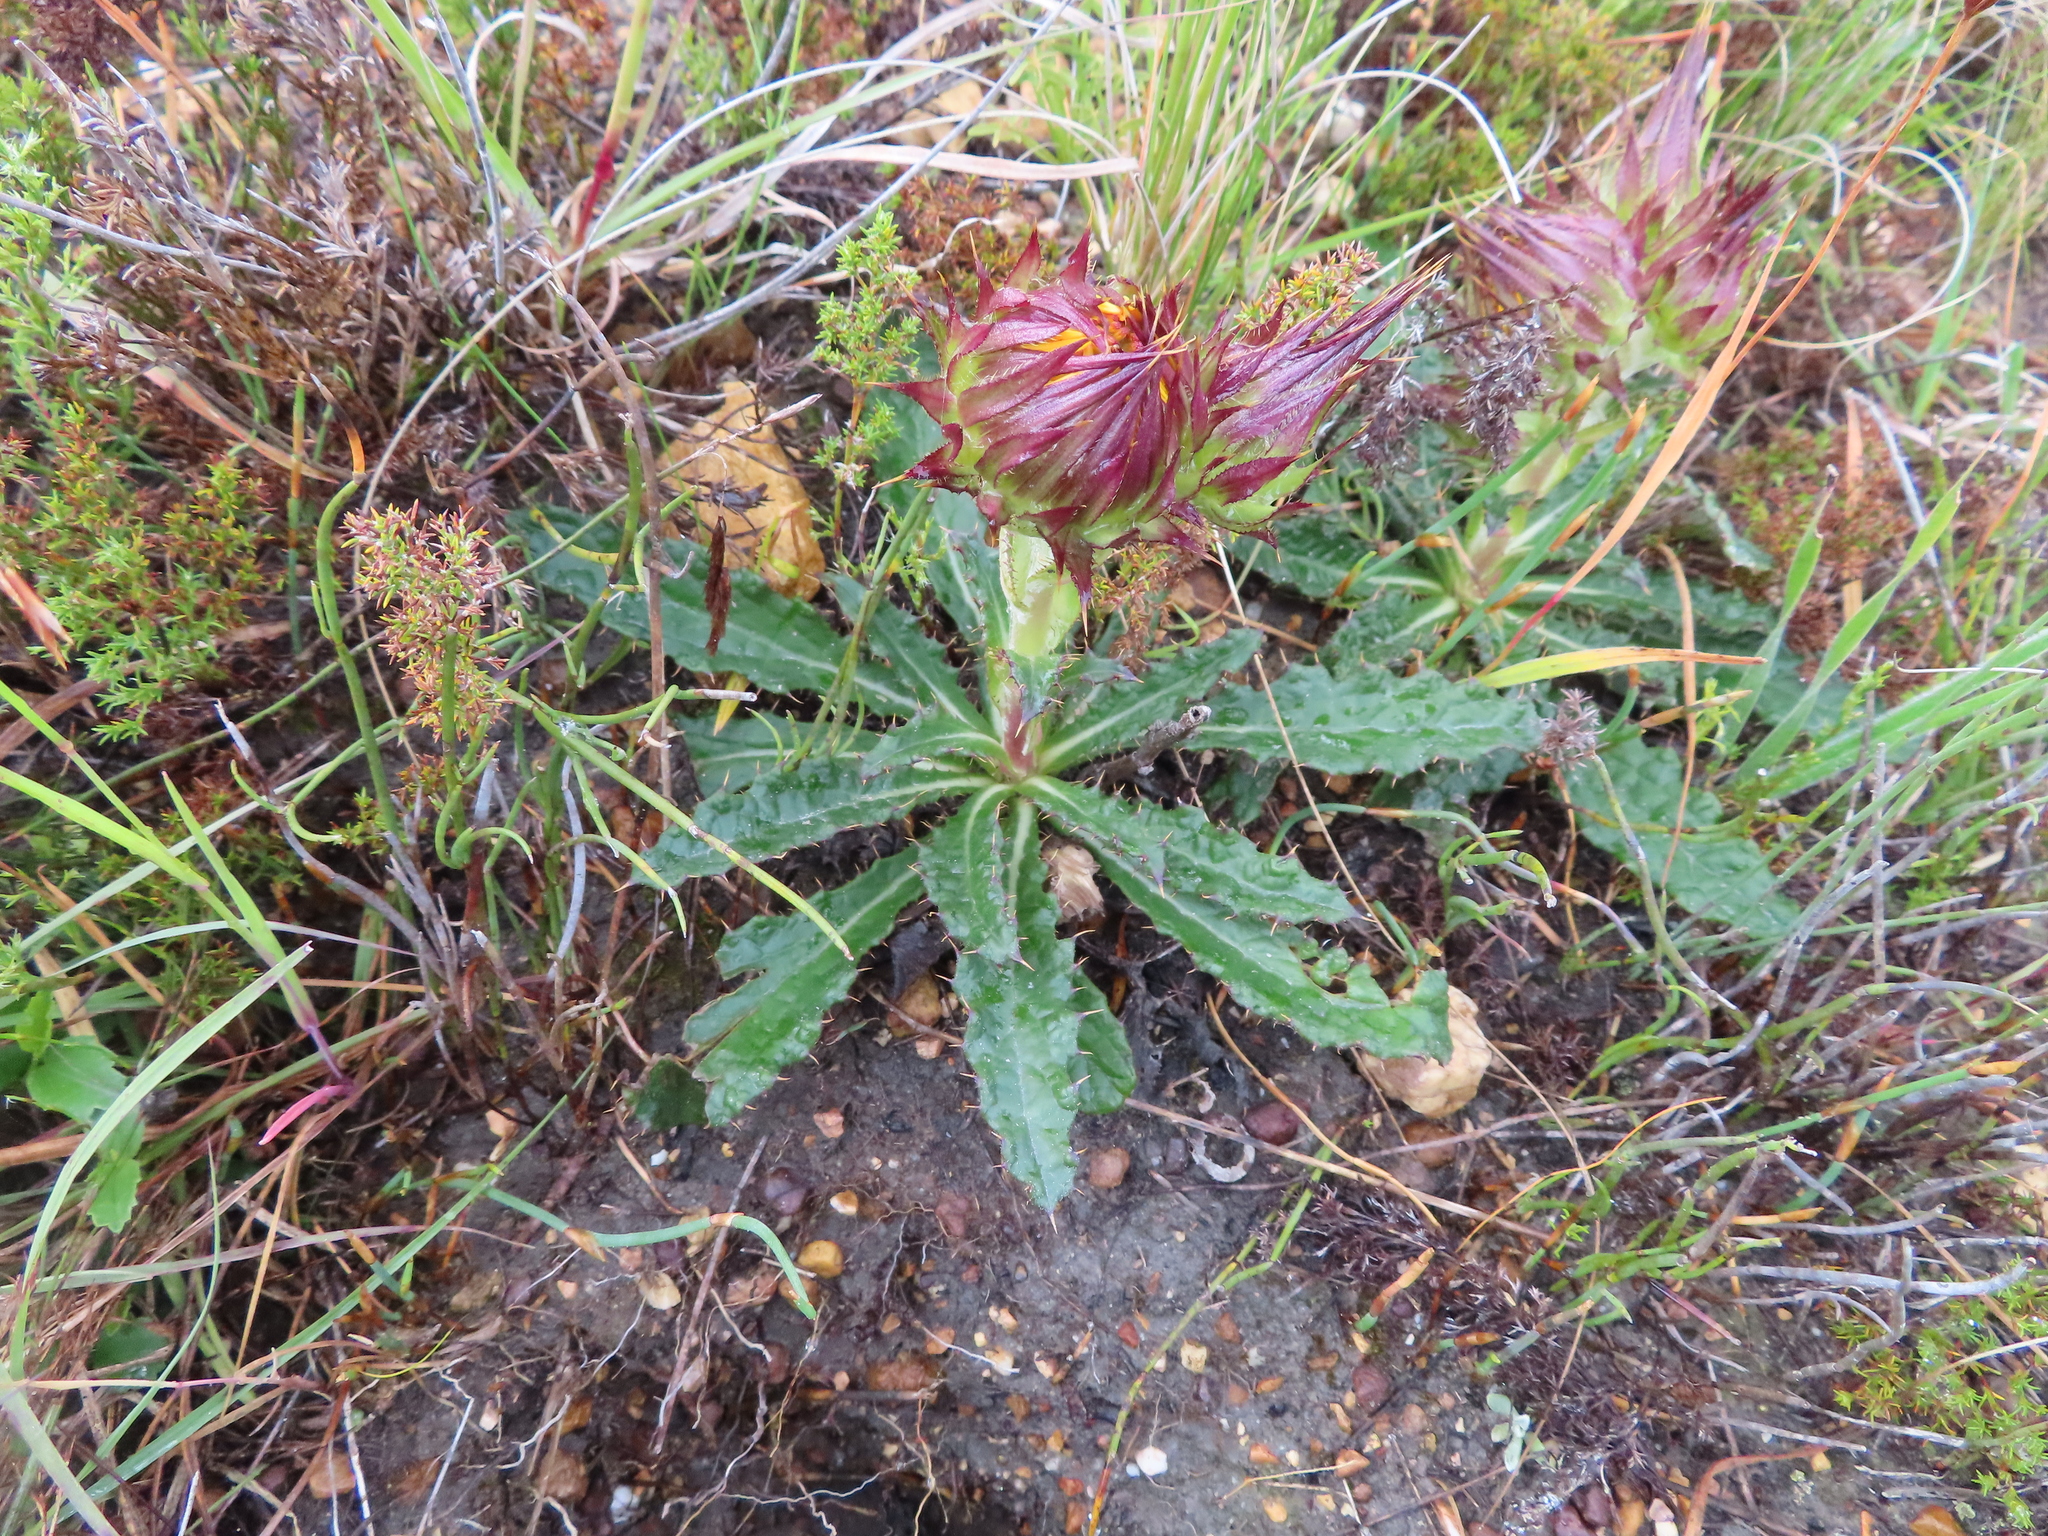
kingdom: Plantae
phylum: Tracheophyta
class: Magnoliopsida
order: Asterales
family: Asteraceae
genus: Berkheya
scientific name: Berkheya armata
